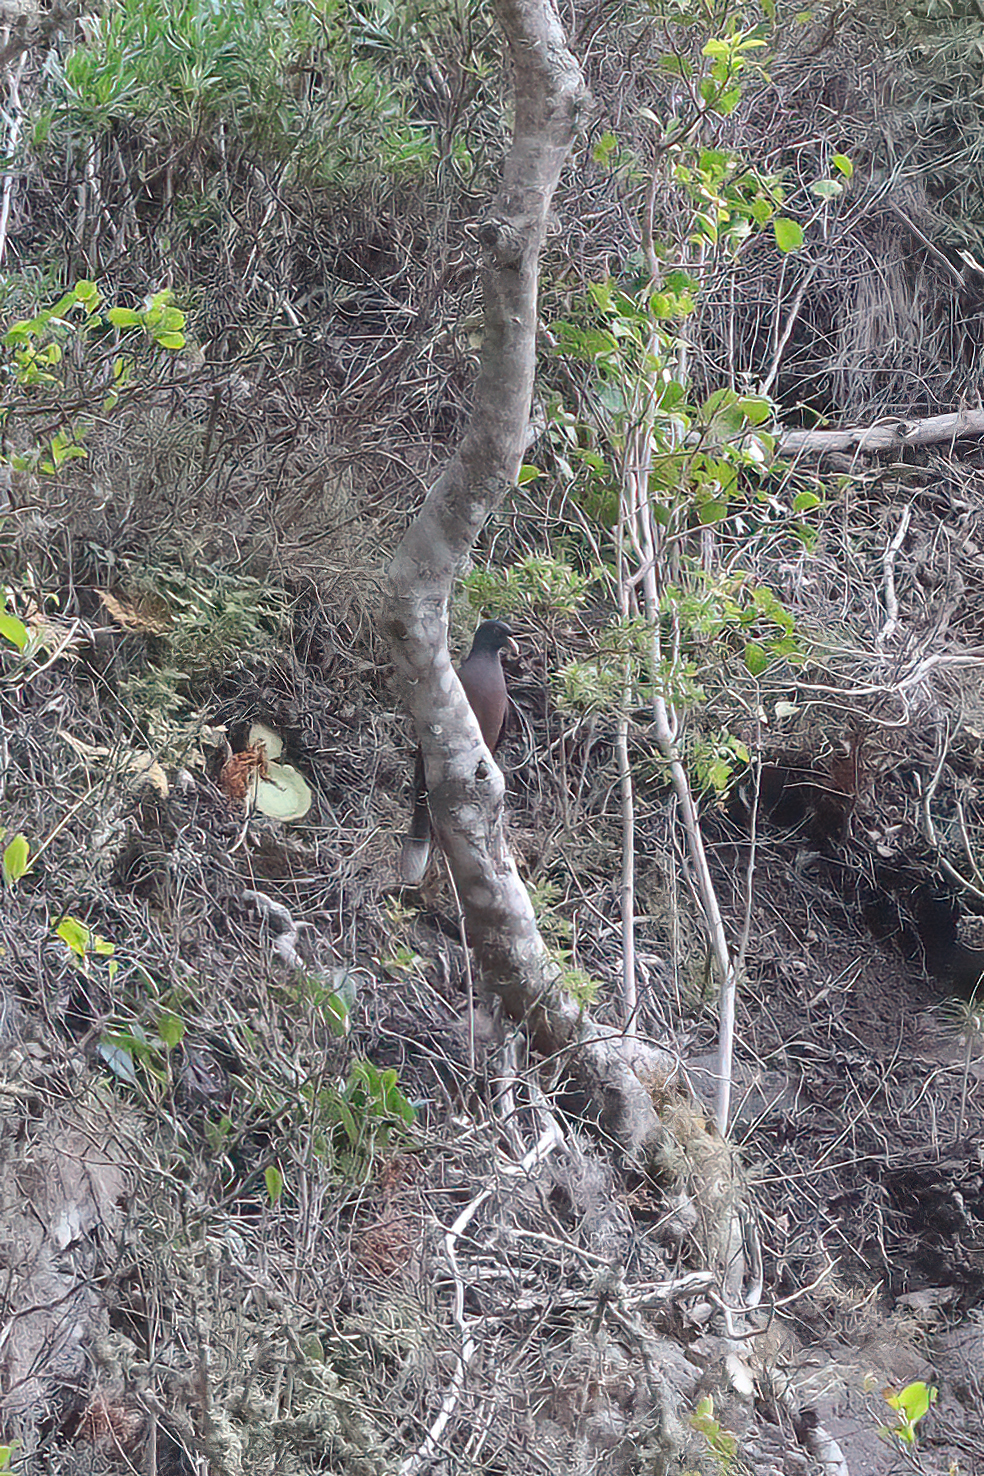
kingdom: Animalia
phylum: Chordata
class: Aves
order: Columbiformes
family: Columbidae
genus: Columba
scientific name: Columba junoniae
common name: Laurel pigeon
